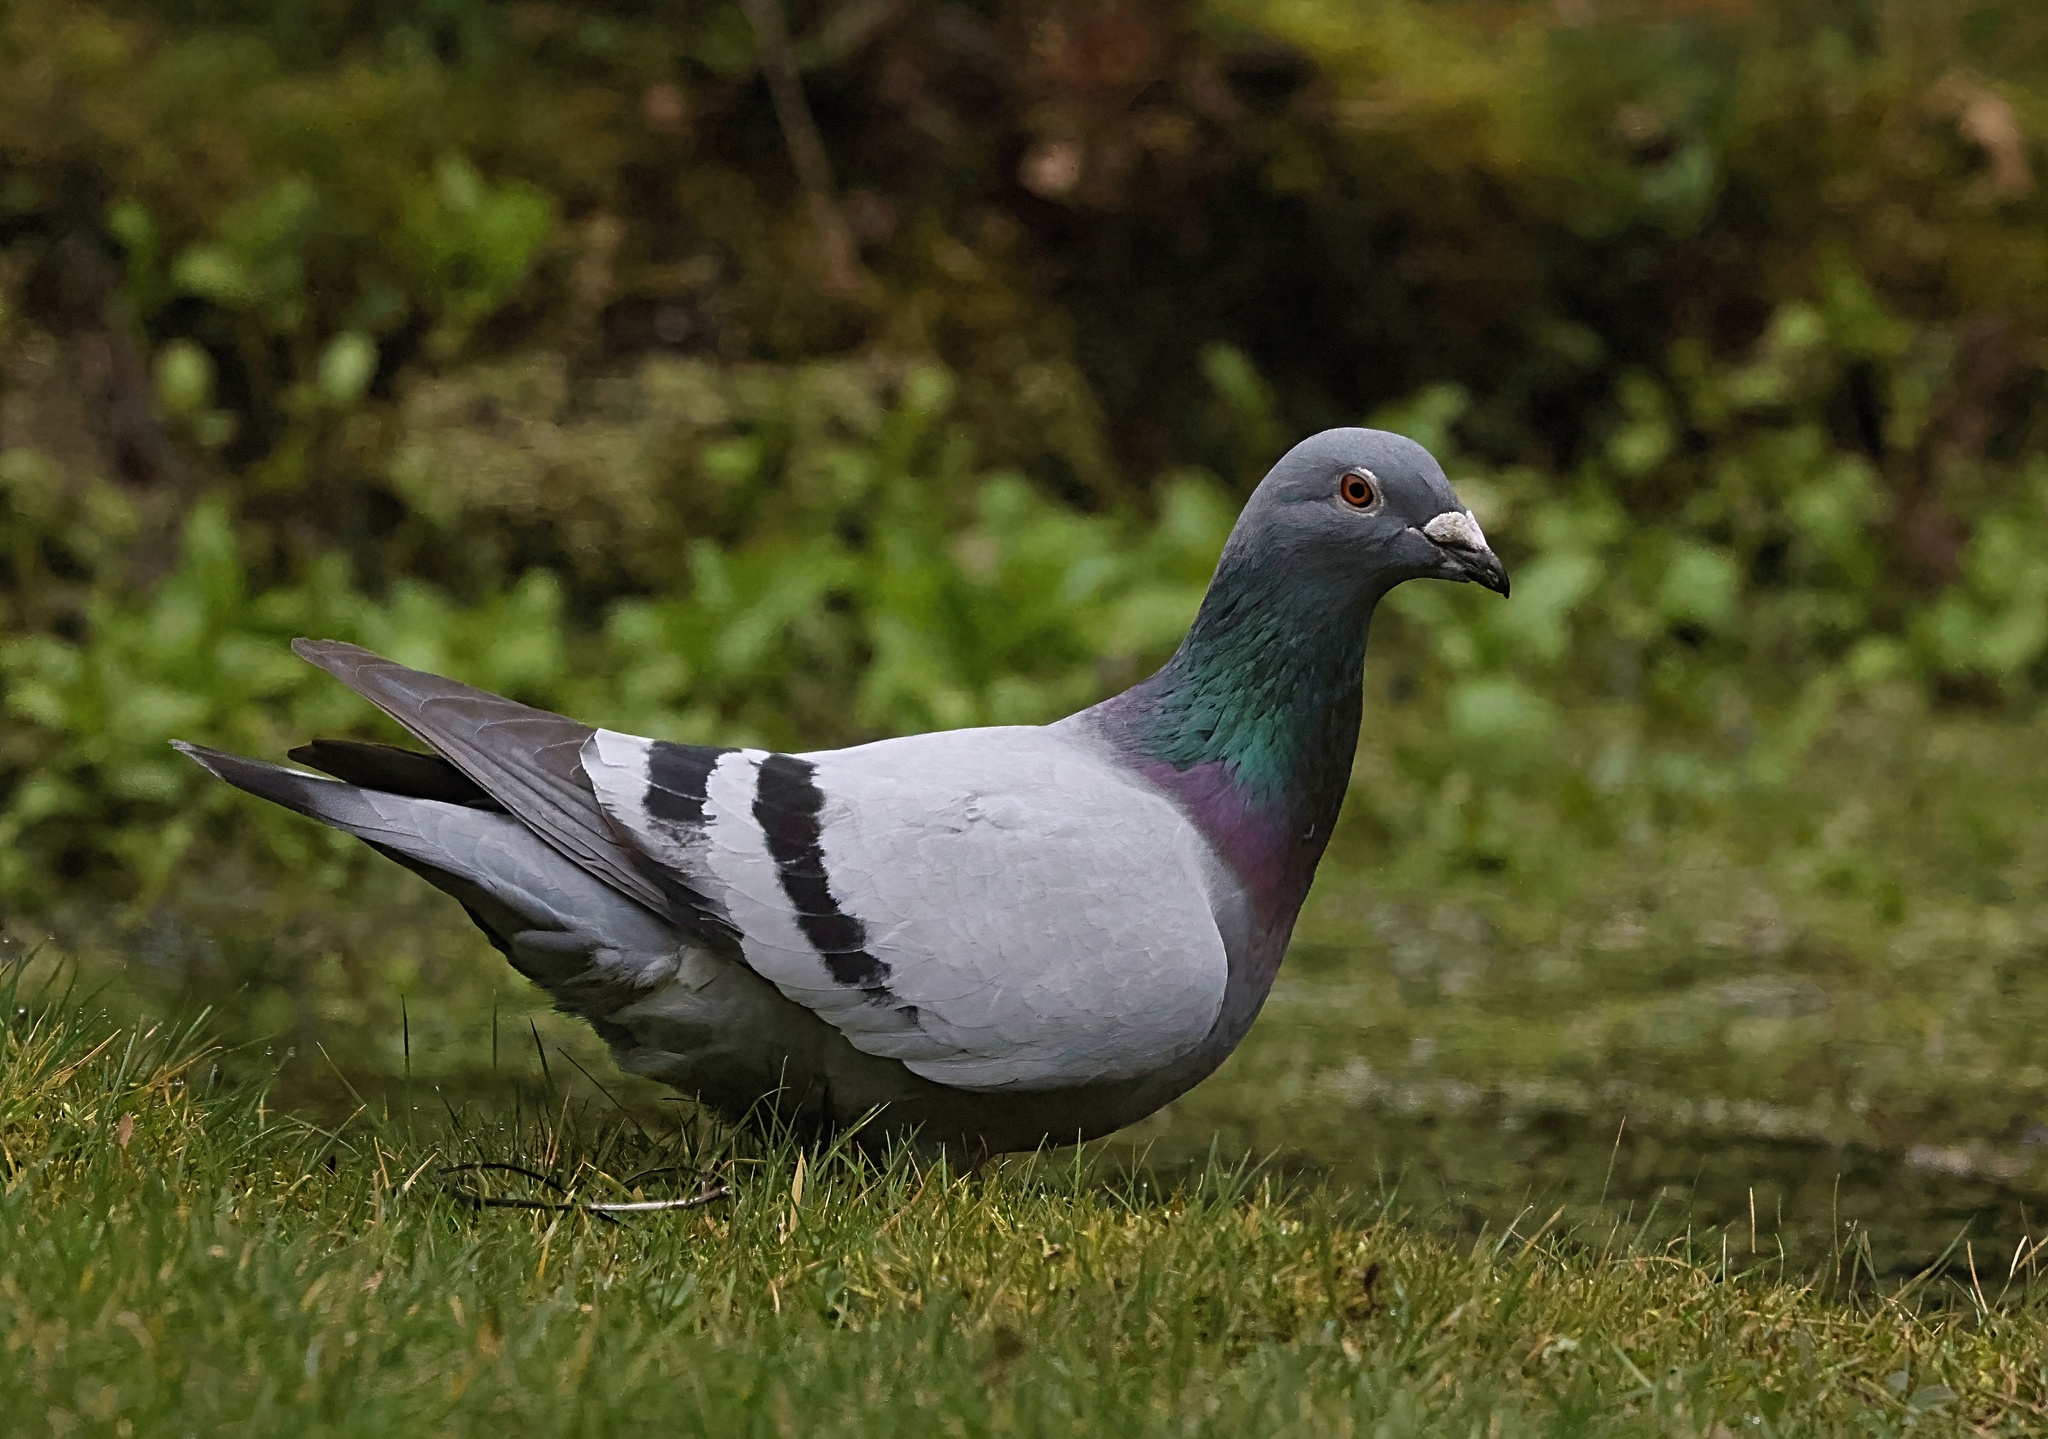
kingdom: Animalia
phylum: Chordata
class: Aves
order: Columbiformes
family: Columbidae
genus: Columba
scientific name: Columba livia
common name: Rock pigeon
